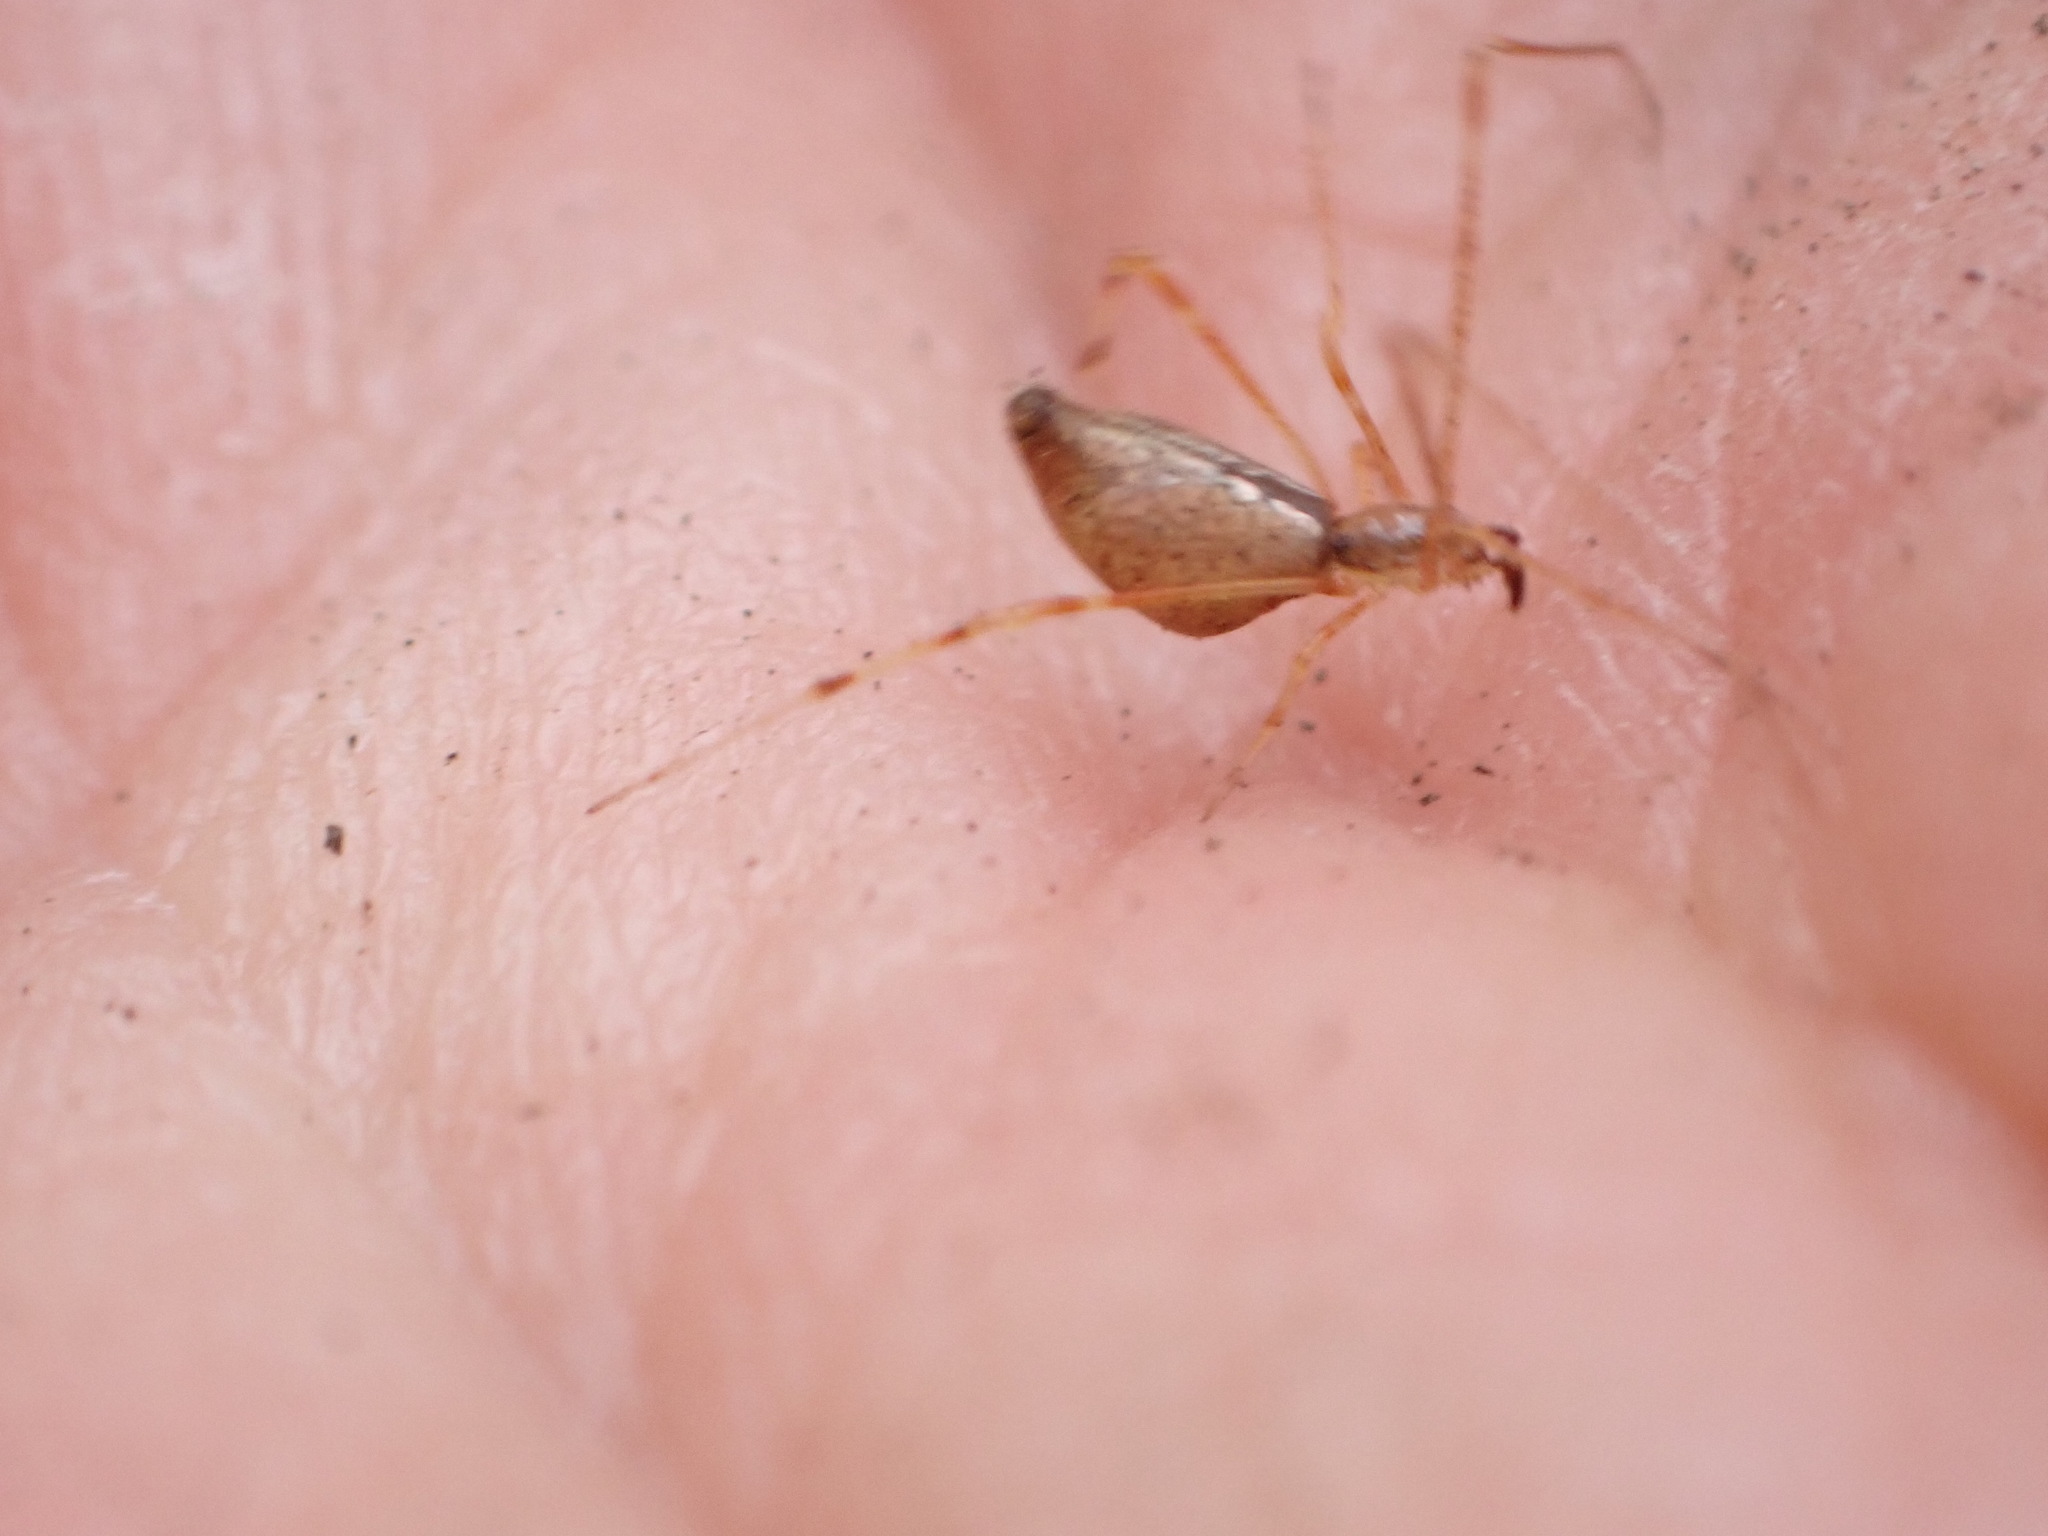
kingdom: Animalia
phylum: Arthropoda
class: Arachnida
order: Araneae
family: Theridiidae
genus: Rhomphaea
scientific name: Rhomphaea urquharti
